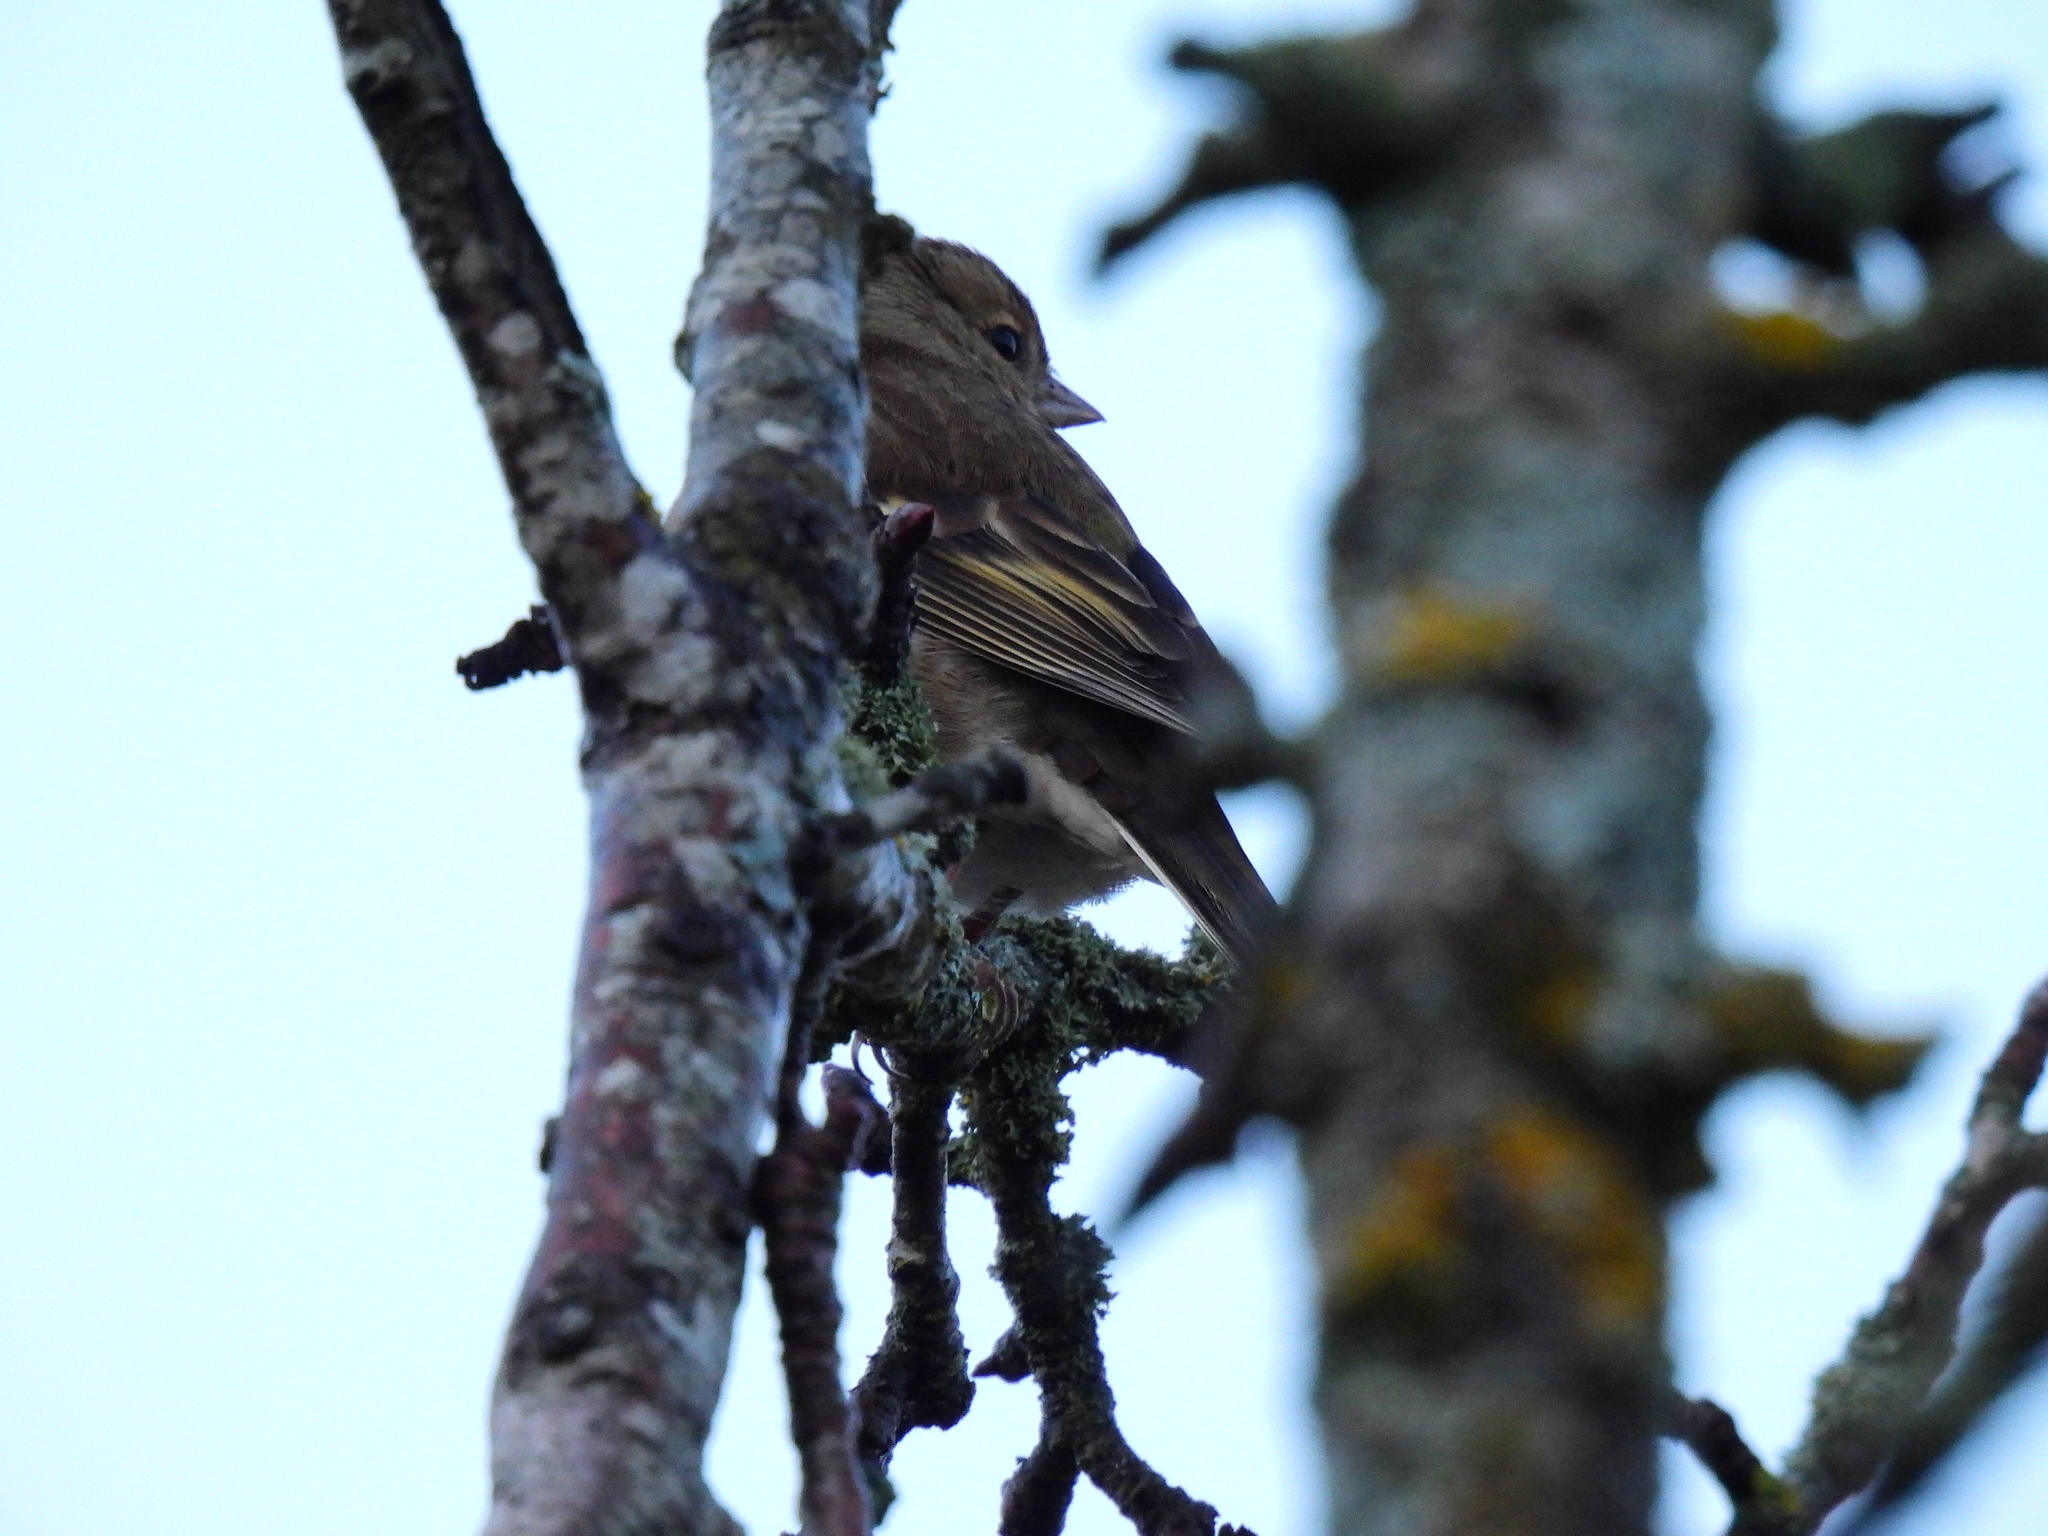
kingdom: Animalia
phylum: Chordata
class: Aves
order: Passeriformes
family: Fringillidae
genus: Fringilla
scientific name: Fringilla coelebs
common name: Common chaffinch
